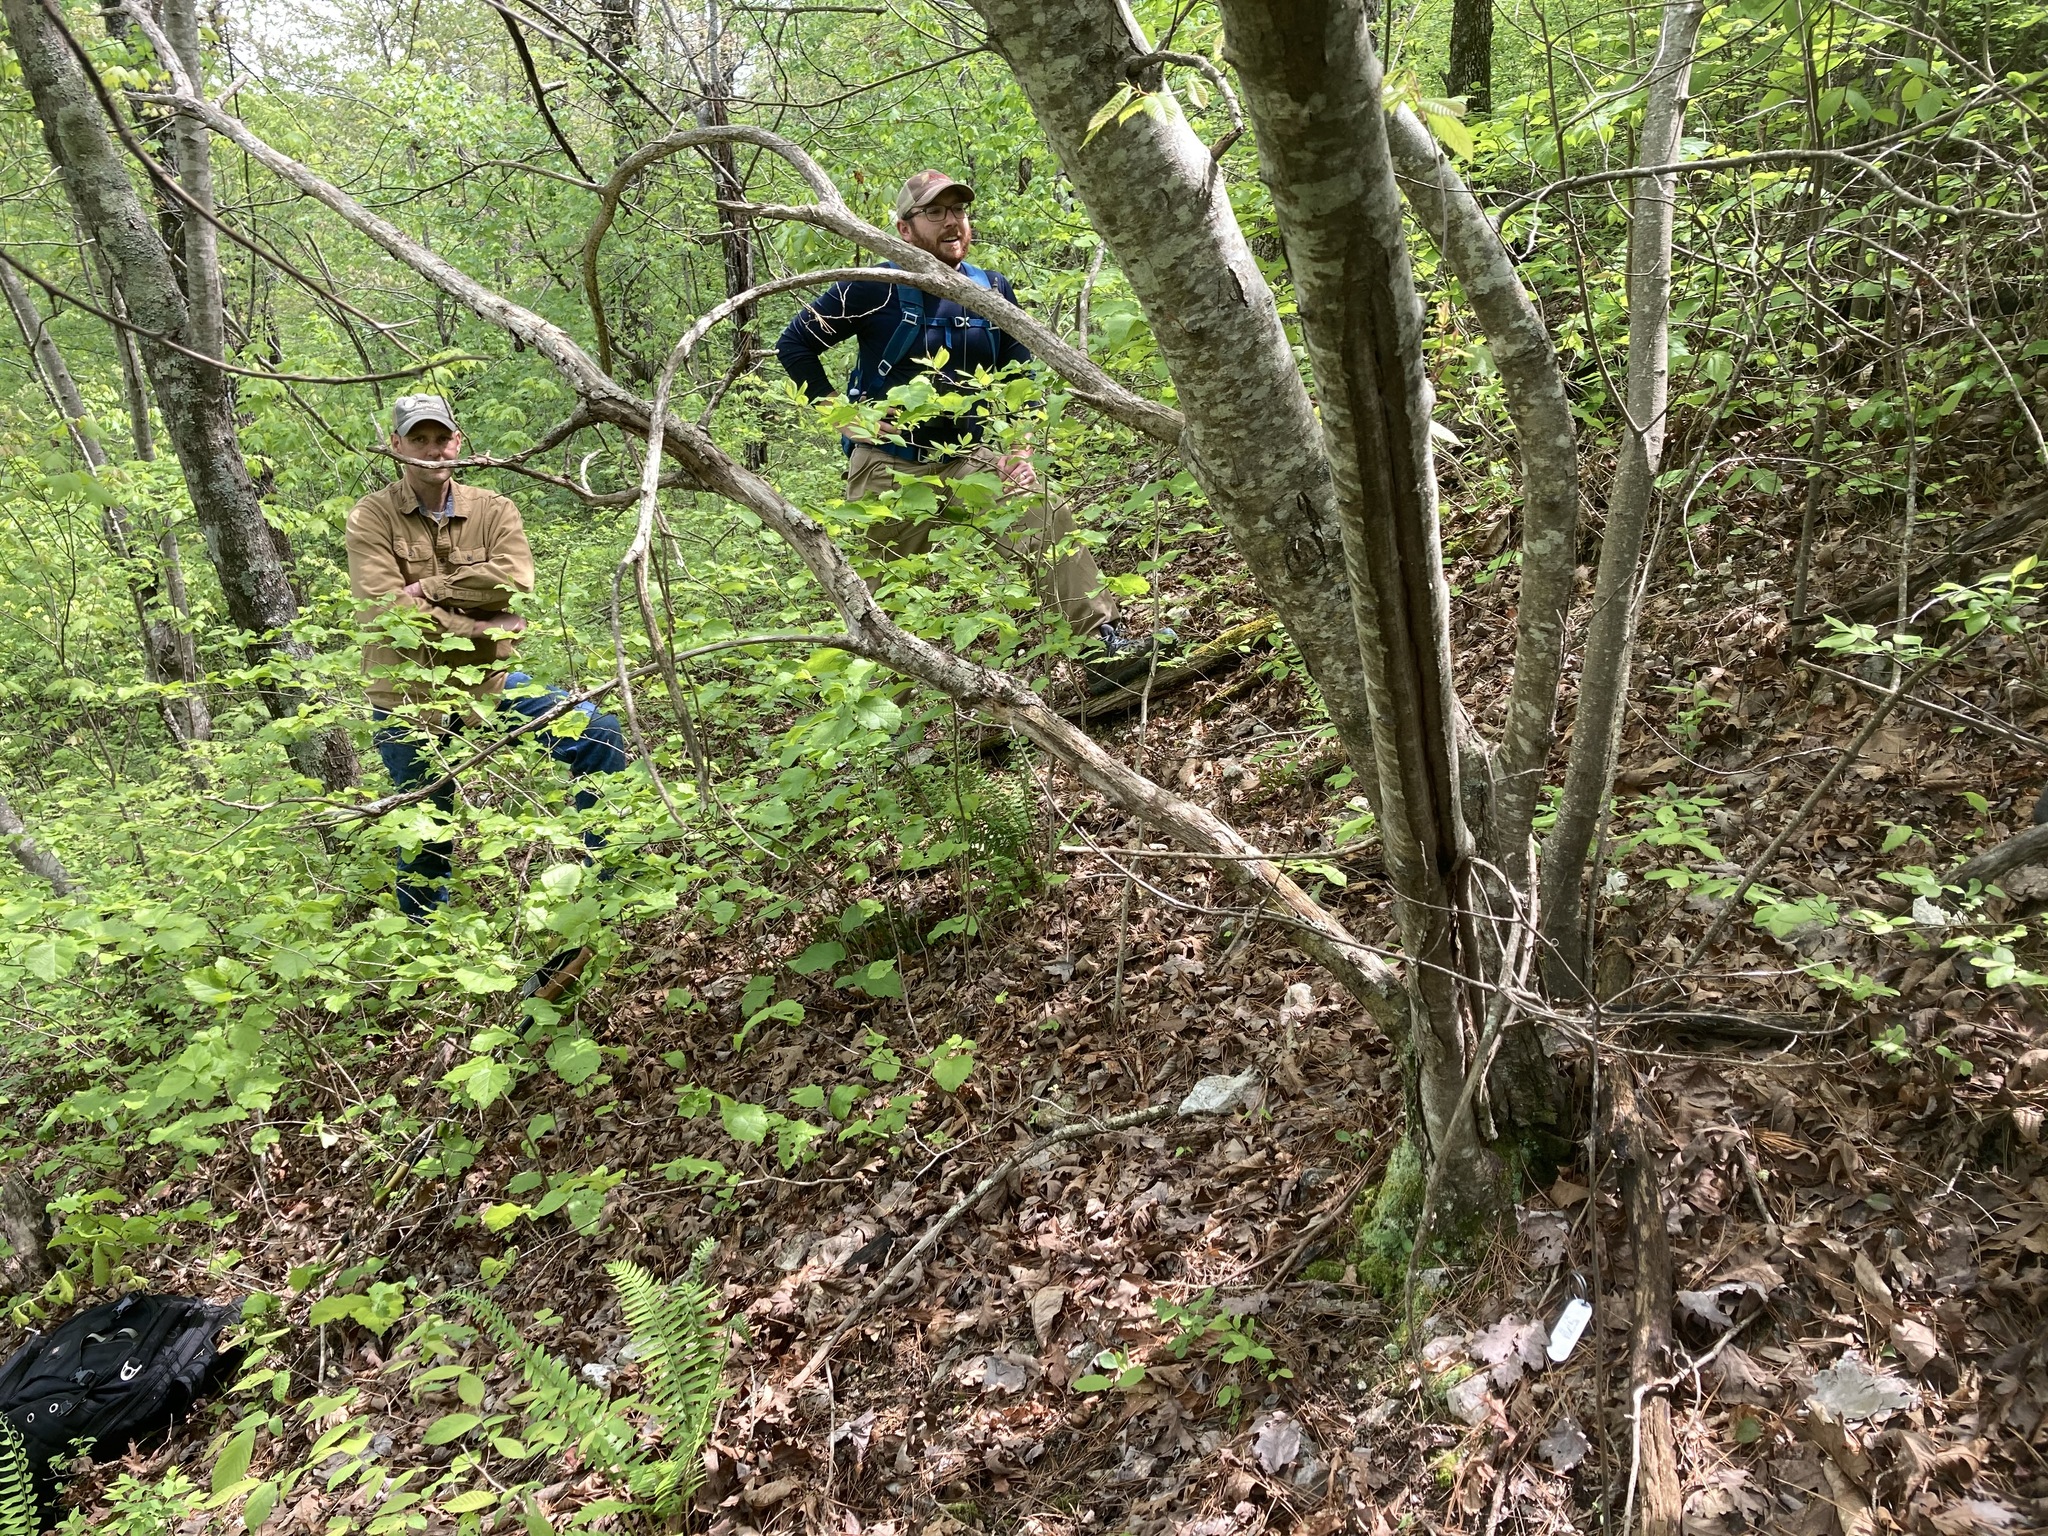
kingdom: Plantae
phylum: Tracheophyta
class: Magnoliopsida
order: Fagales
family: Fagaceae
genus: Castanea
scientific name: Castanea ozarkensis
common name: Ozark chinkapin
